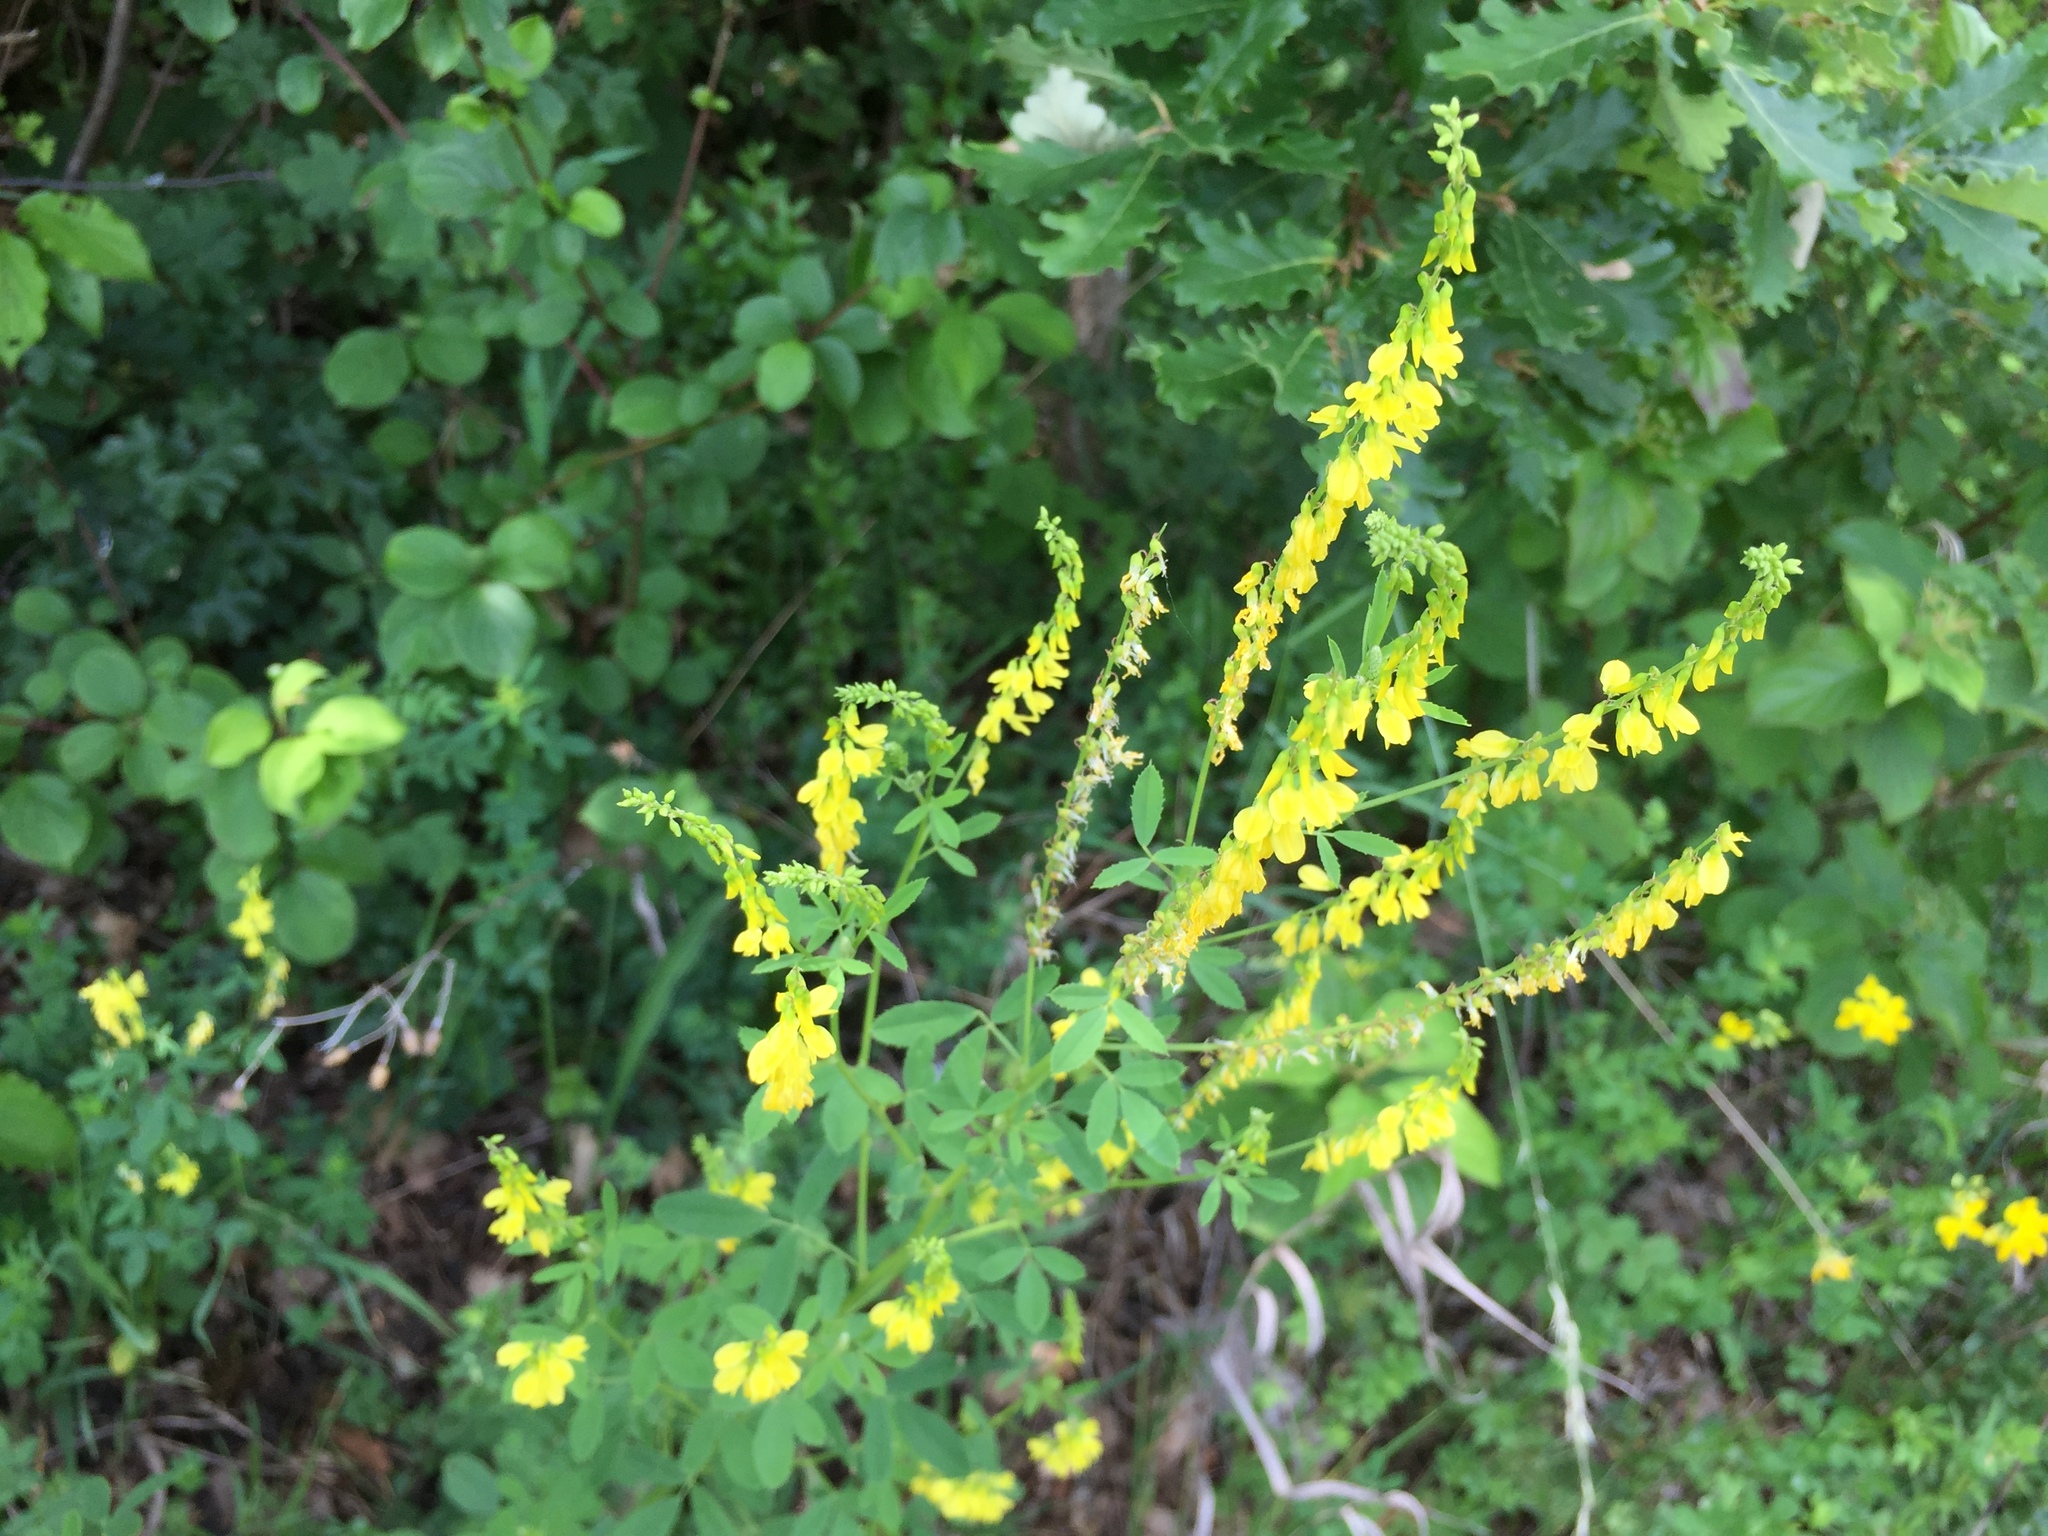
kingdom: Plantae
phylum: Tracheophyta
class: Magnoliopsida
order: Fabales
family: Fabaceae
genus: Melilotus
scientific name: Melilotus officinalis
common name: Sweetclover
